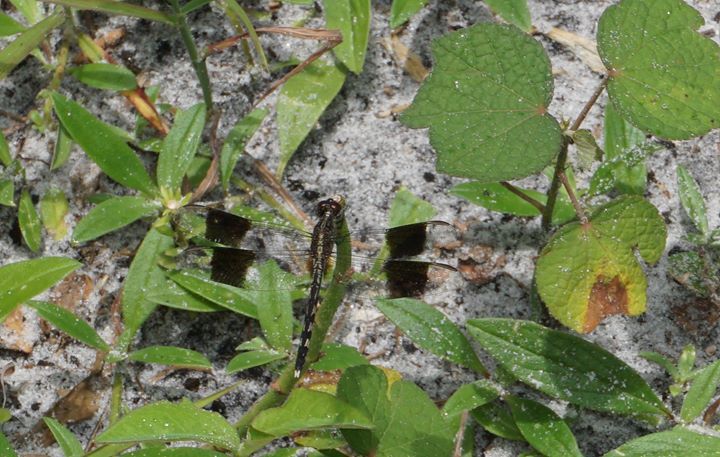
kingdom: Animalia
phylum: Arthropoda
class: Insecta
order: Odonata
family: Libellulidae
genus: Brachymesia
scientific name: Brachymesia gravida
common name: Four-spotted pennant
